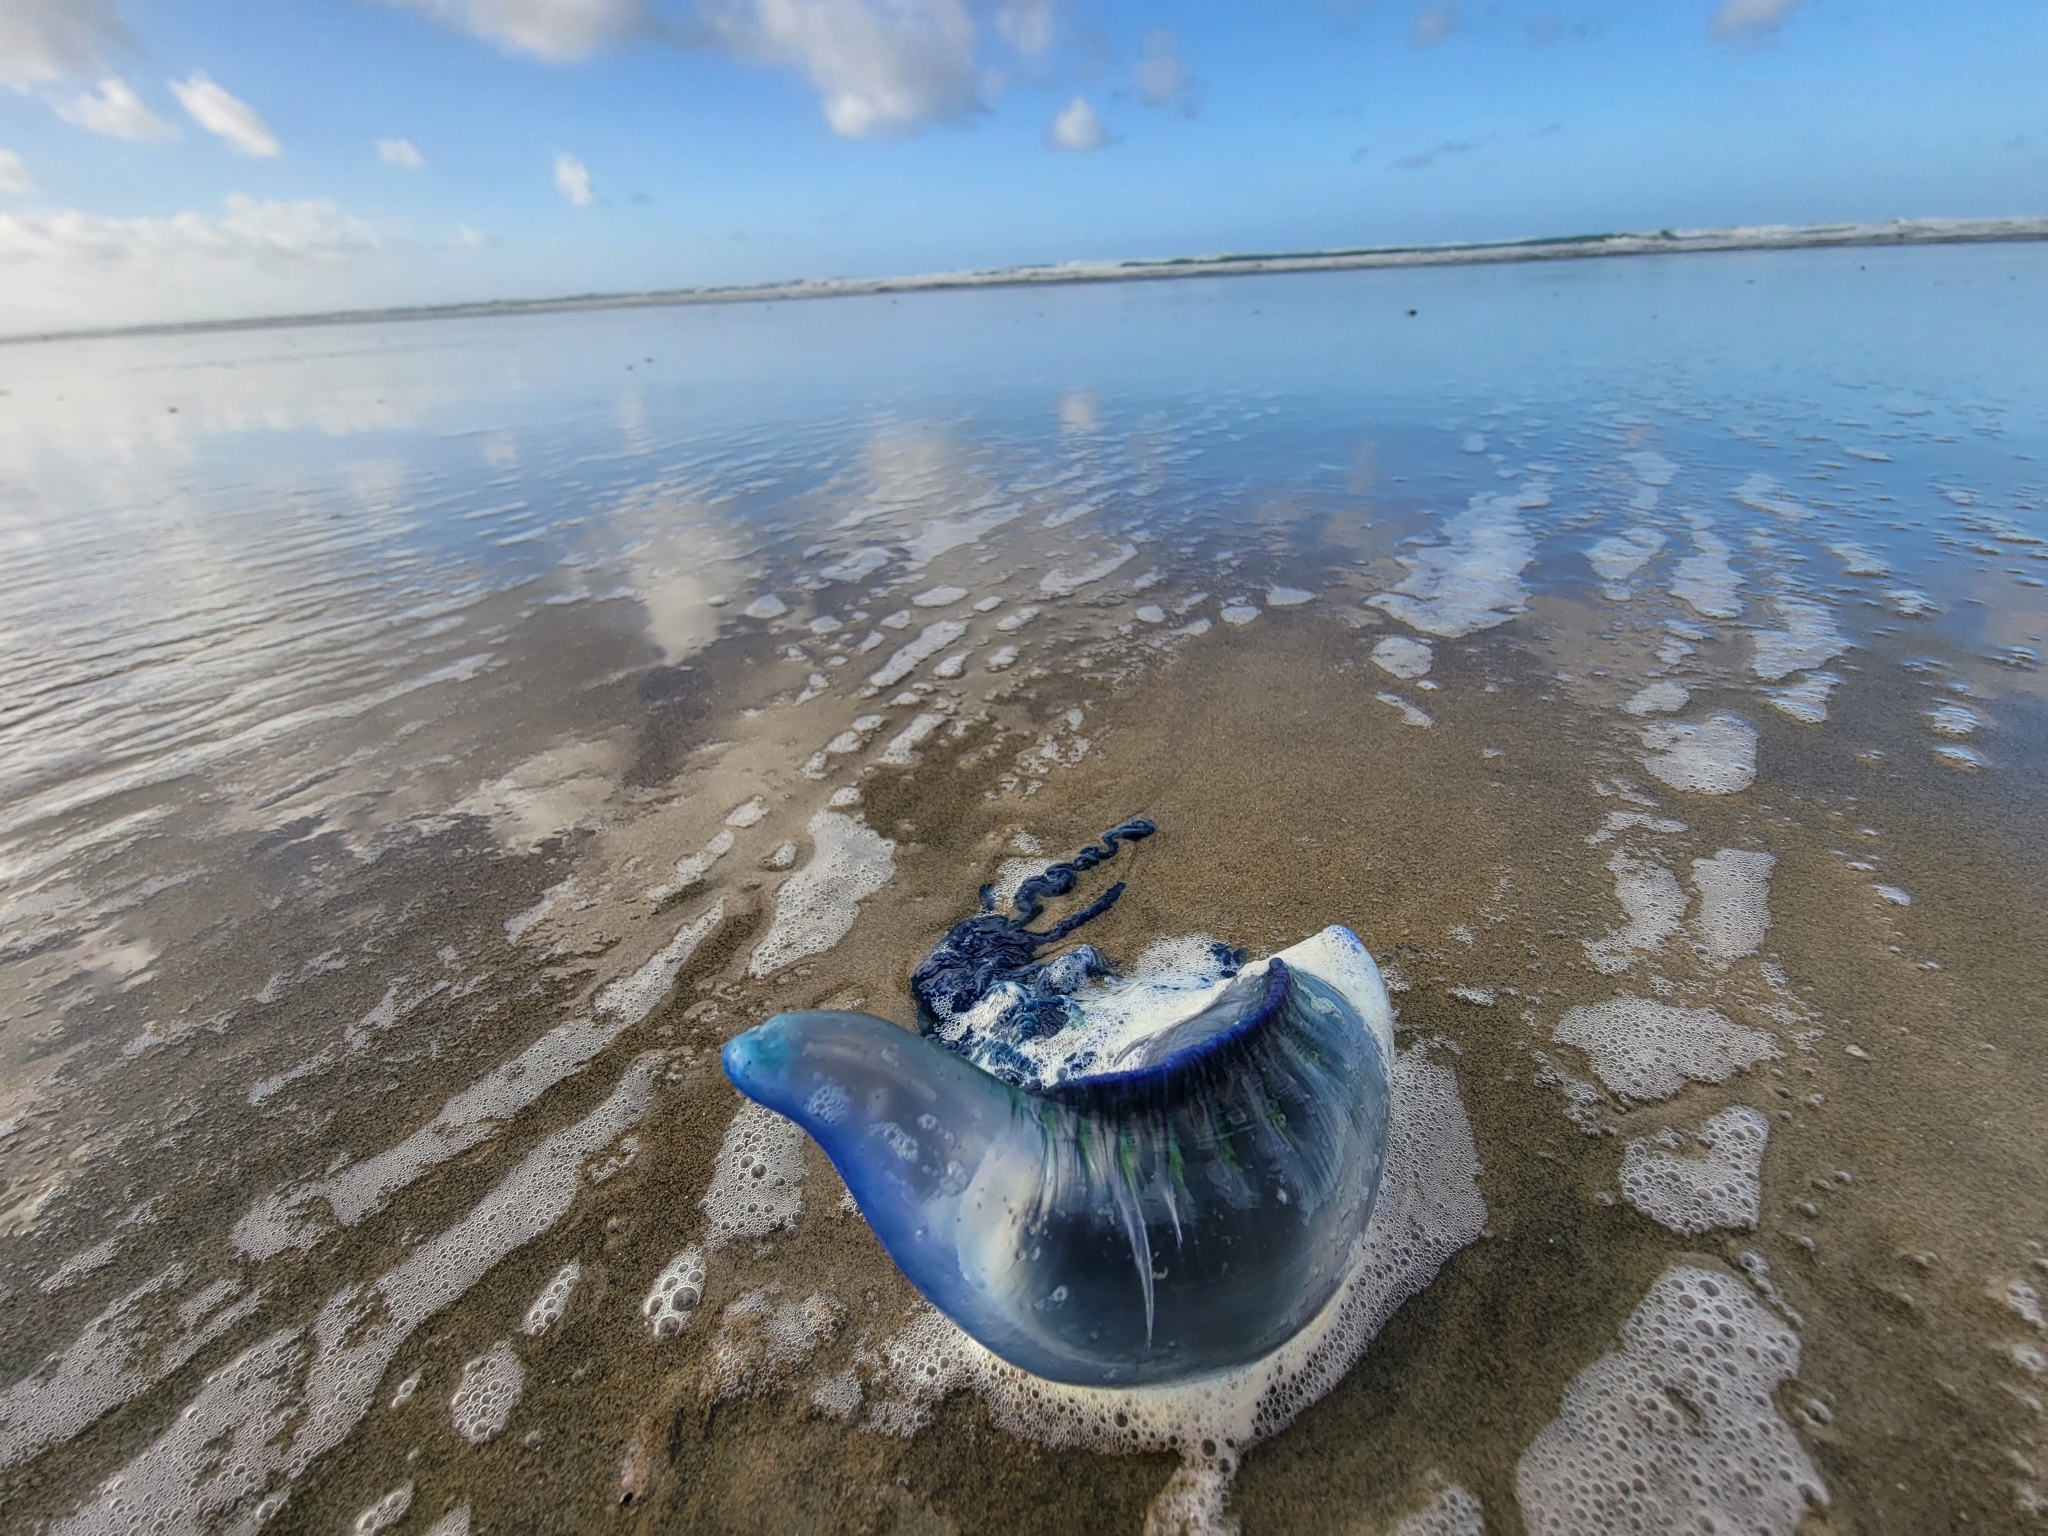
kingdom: Animalia
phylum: Cnidaria
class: Hydrozoa
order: Siphonophorae
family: Physaliidae
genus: Physalia
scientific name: Physalia physalis
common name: Portuguese man-of-war
